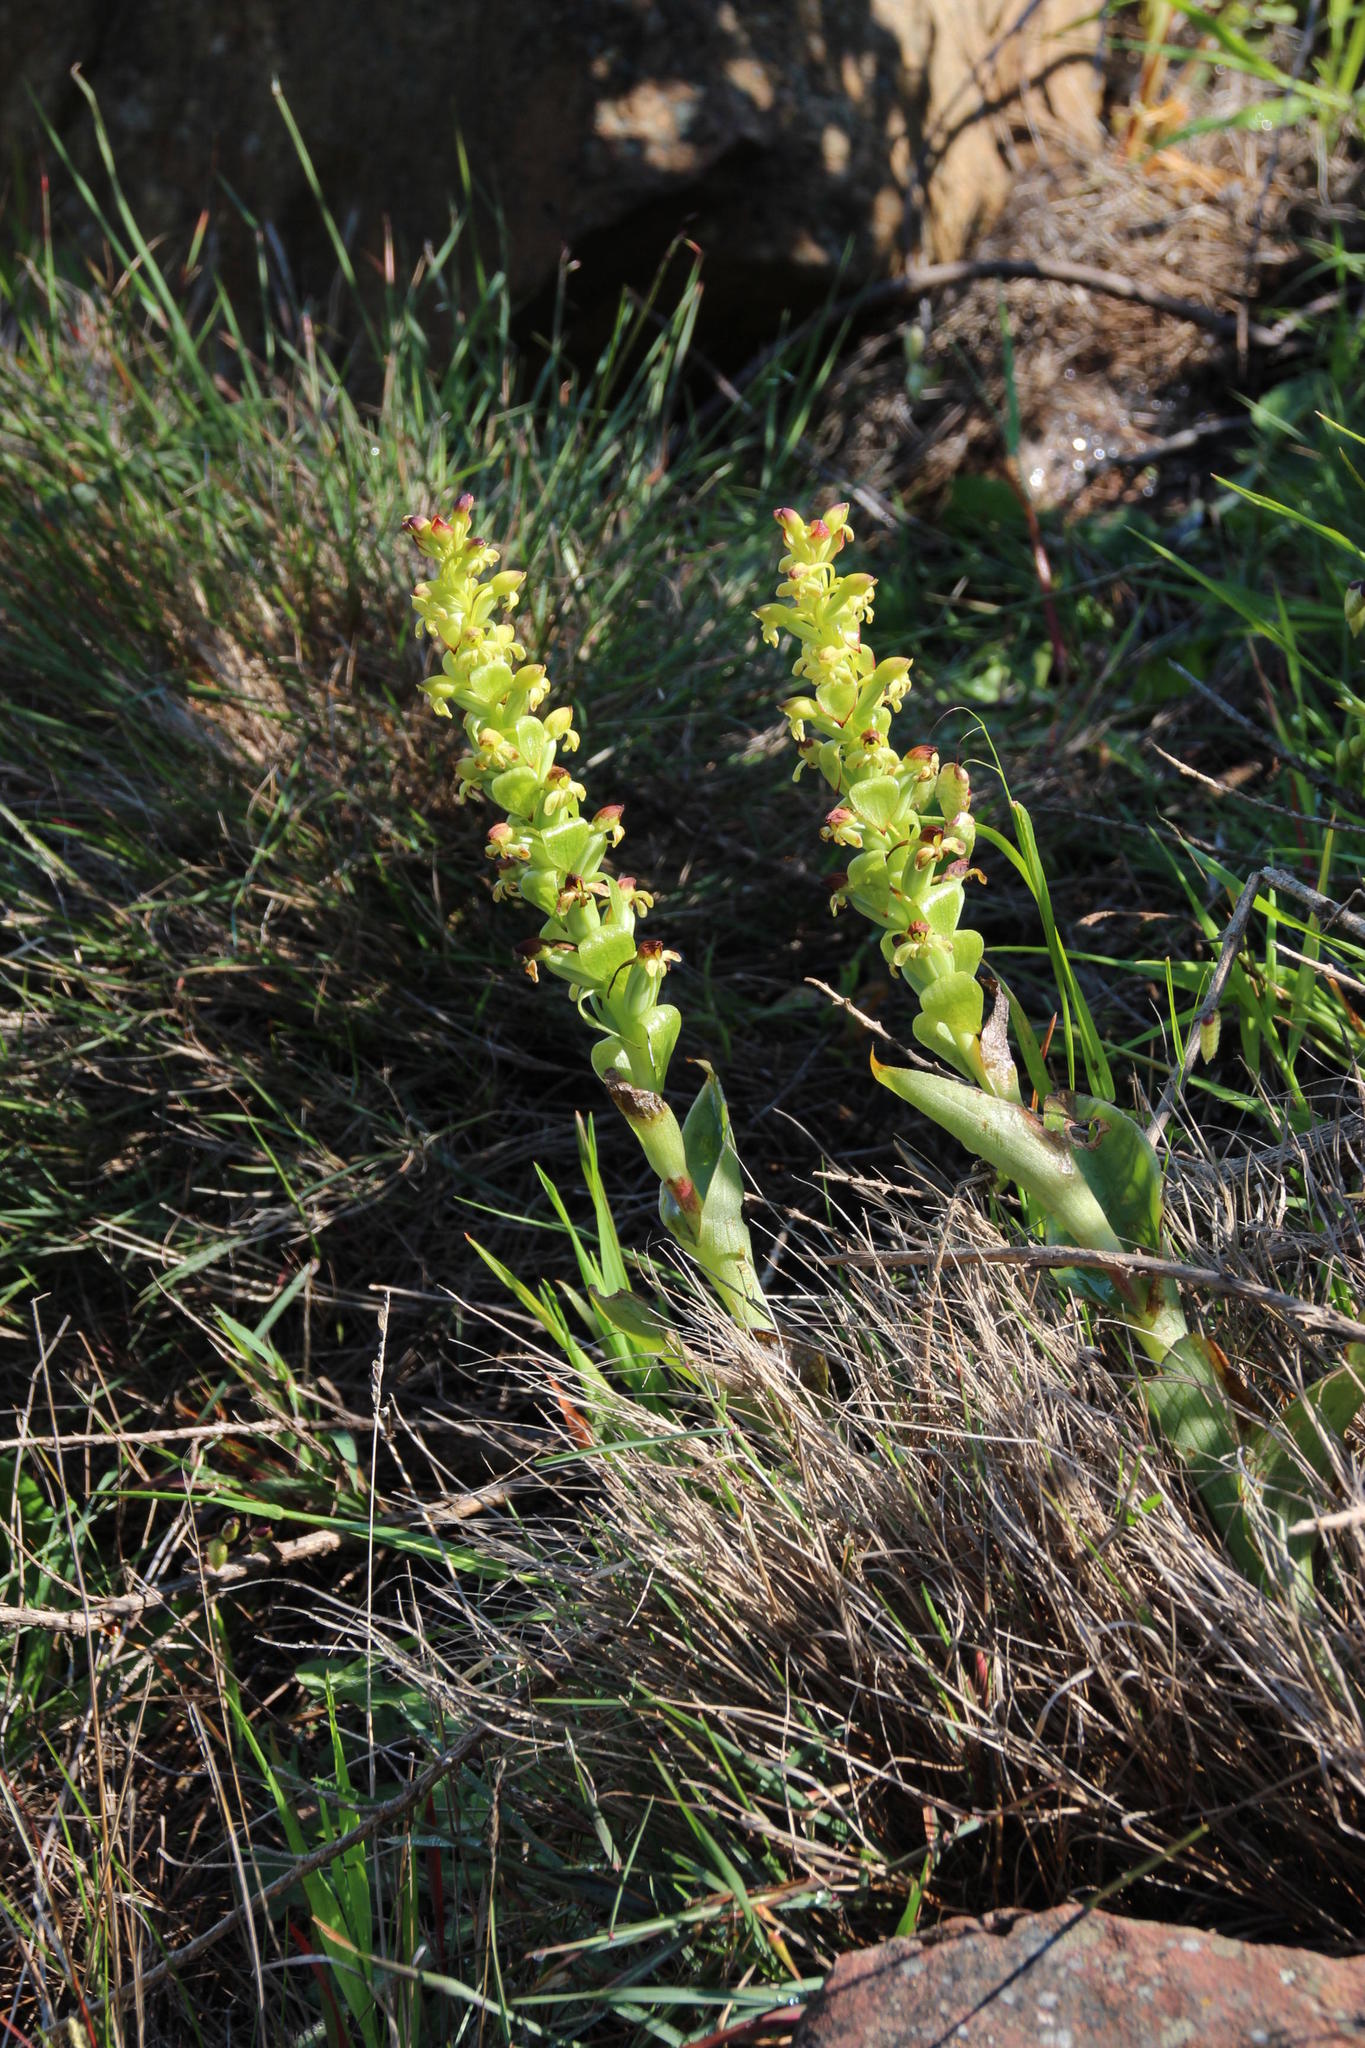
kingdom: Plantae
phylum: Tracheophyta
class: Liliopsida
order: Asparagales
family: Orchidaceae
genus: Satyrium
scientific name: Satyrium odorum
